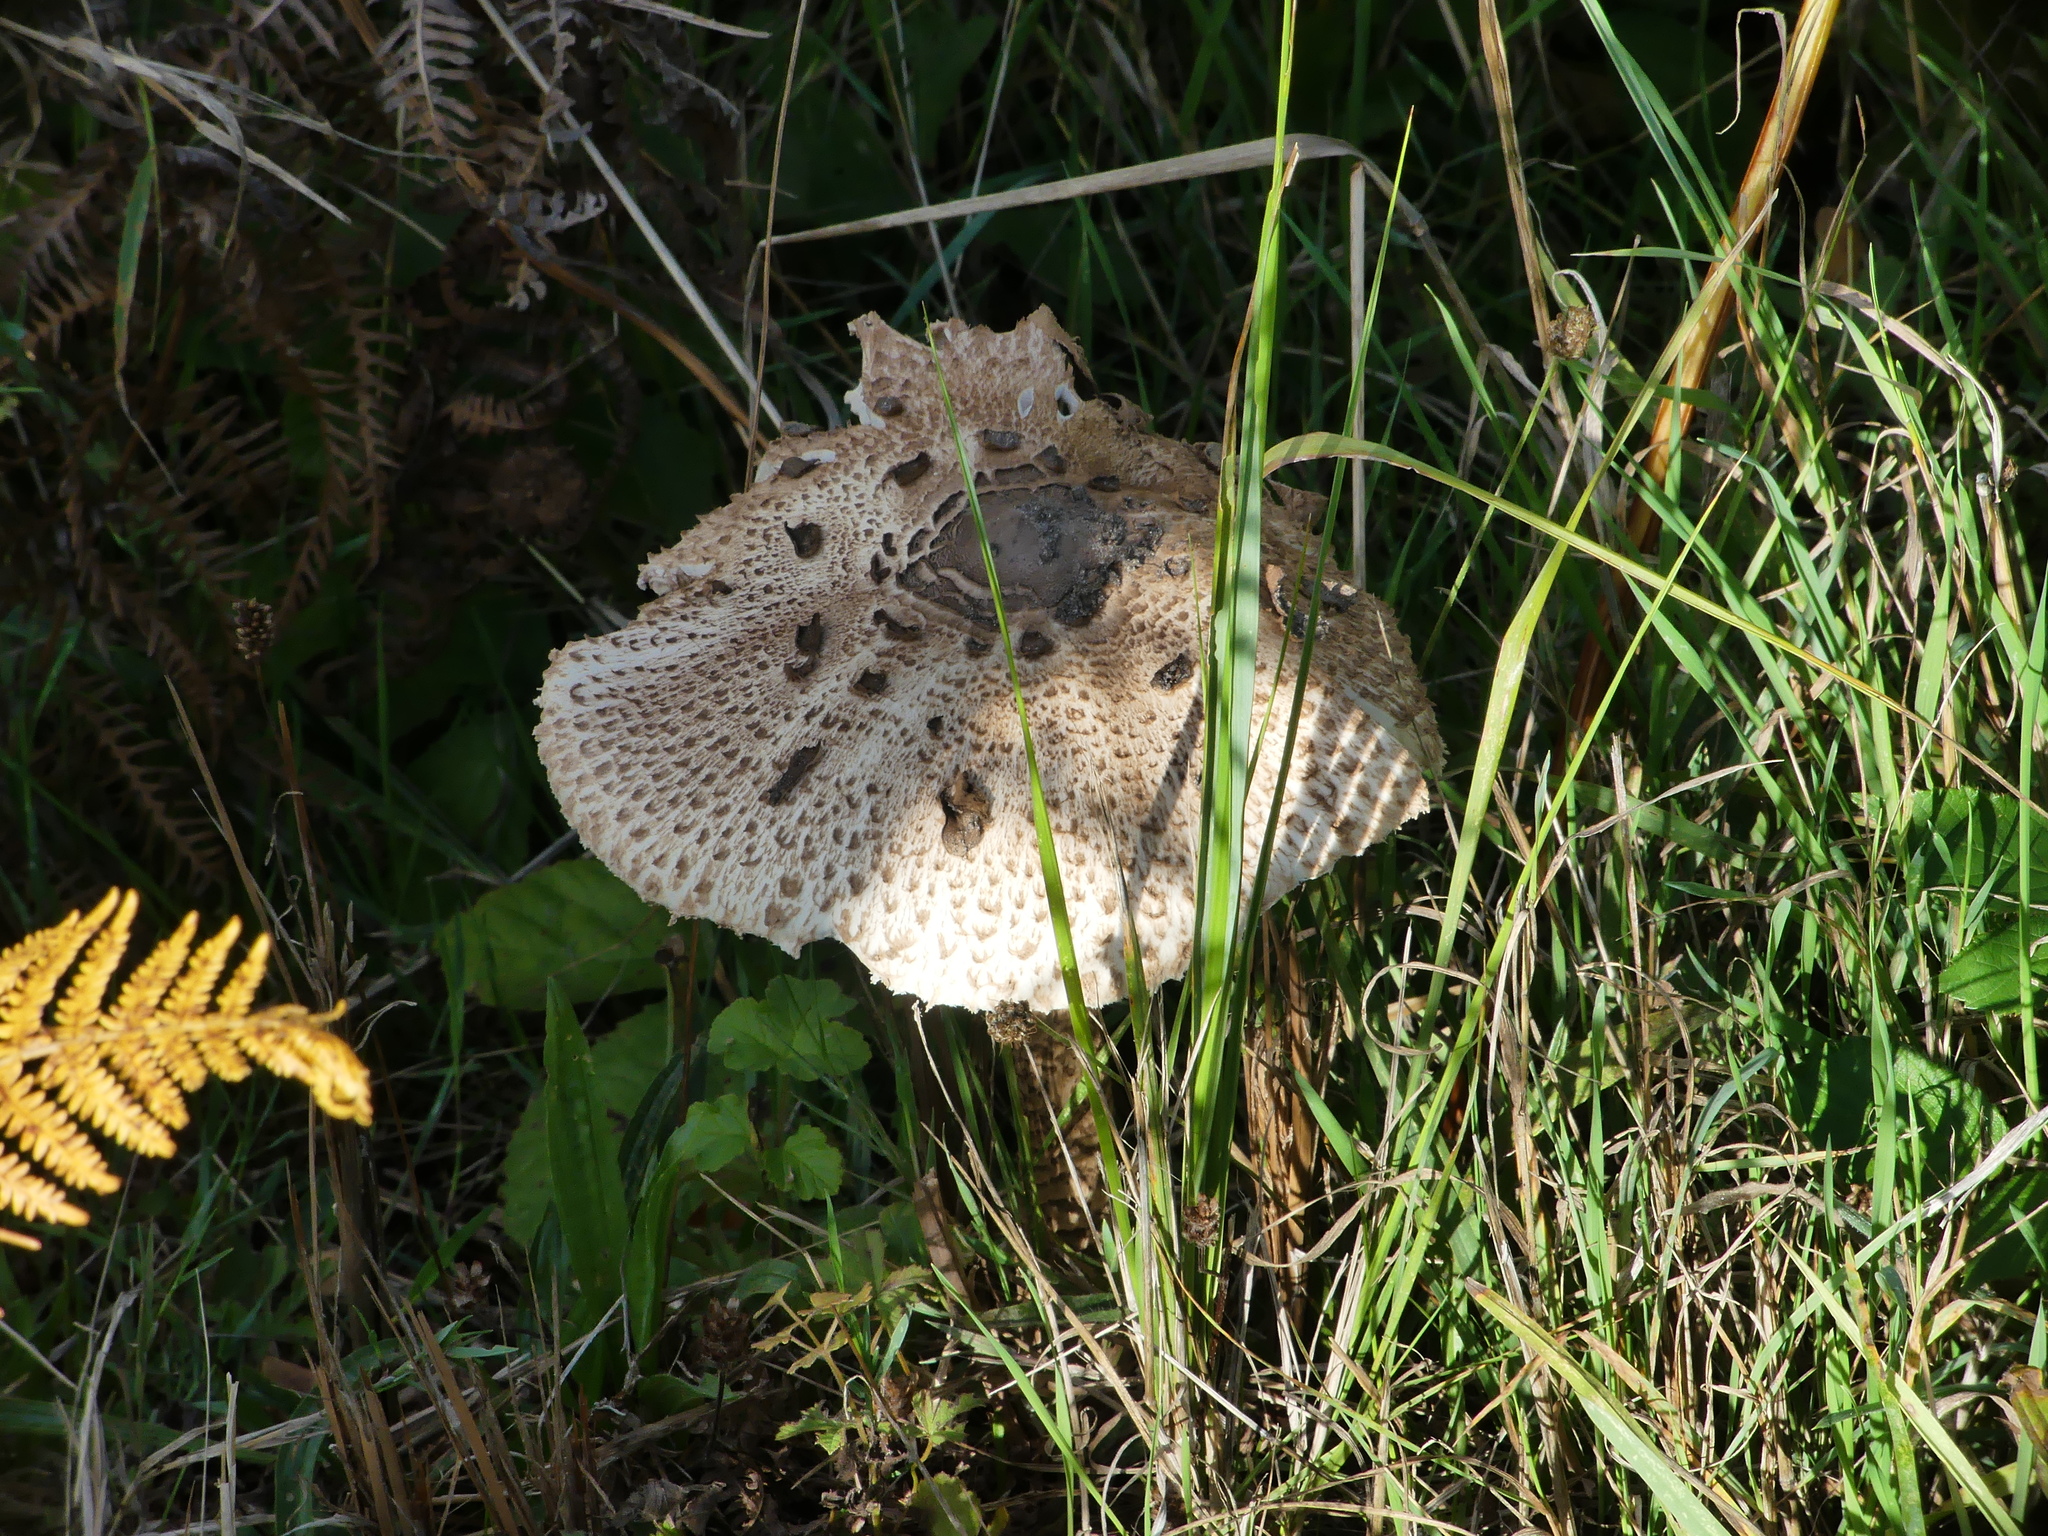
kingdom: Fungi
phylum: Basidiomycota
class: Agaricomycetes
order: Agaricales
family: Agaricaceae
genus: Macrolepiota
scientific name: Macrolepiota procera
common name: Parasol
